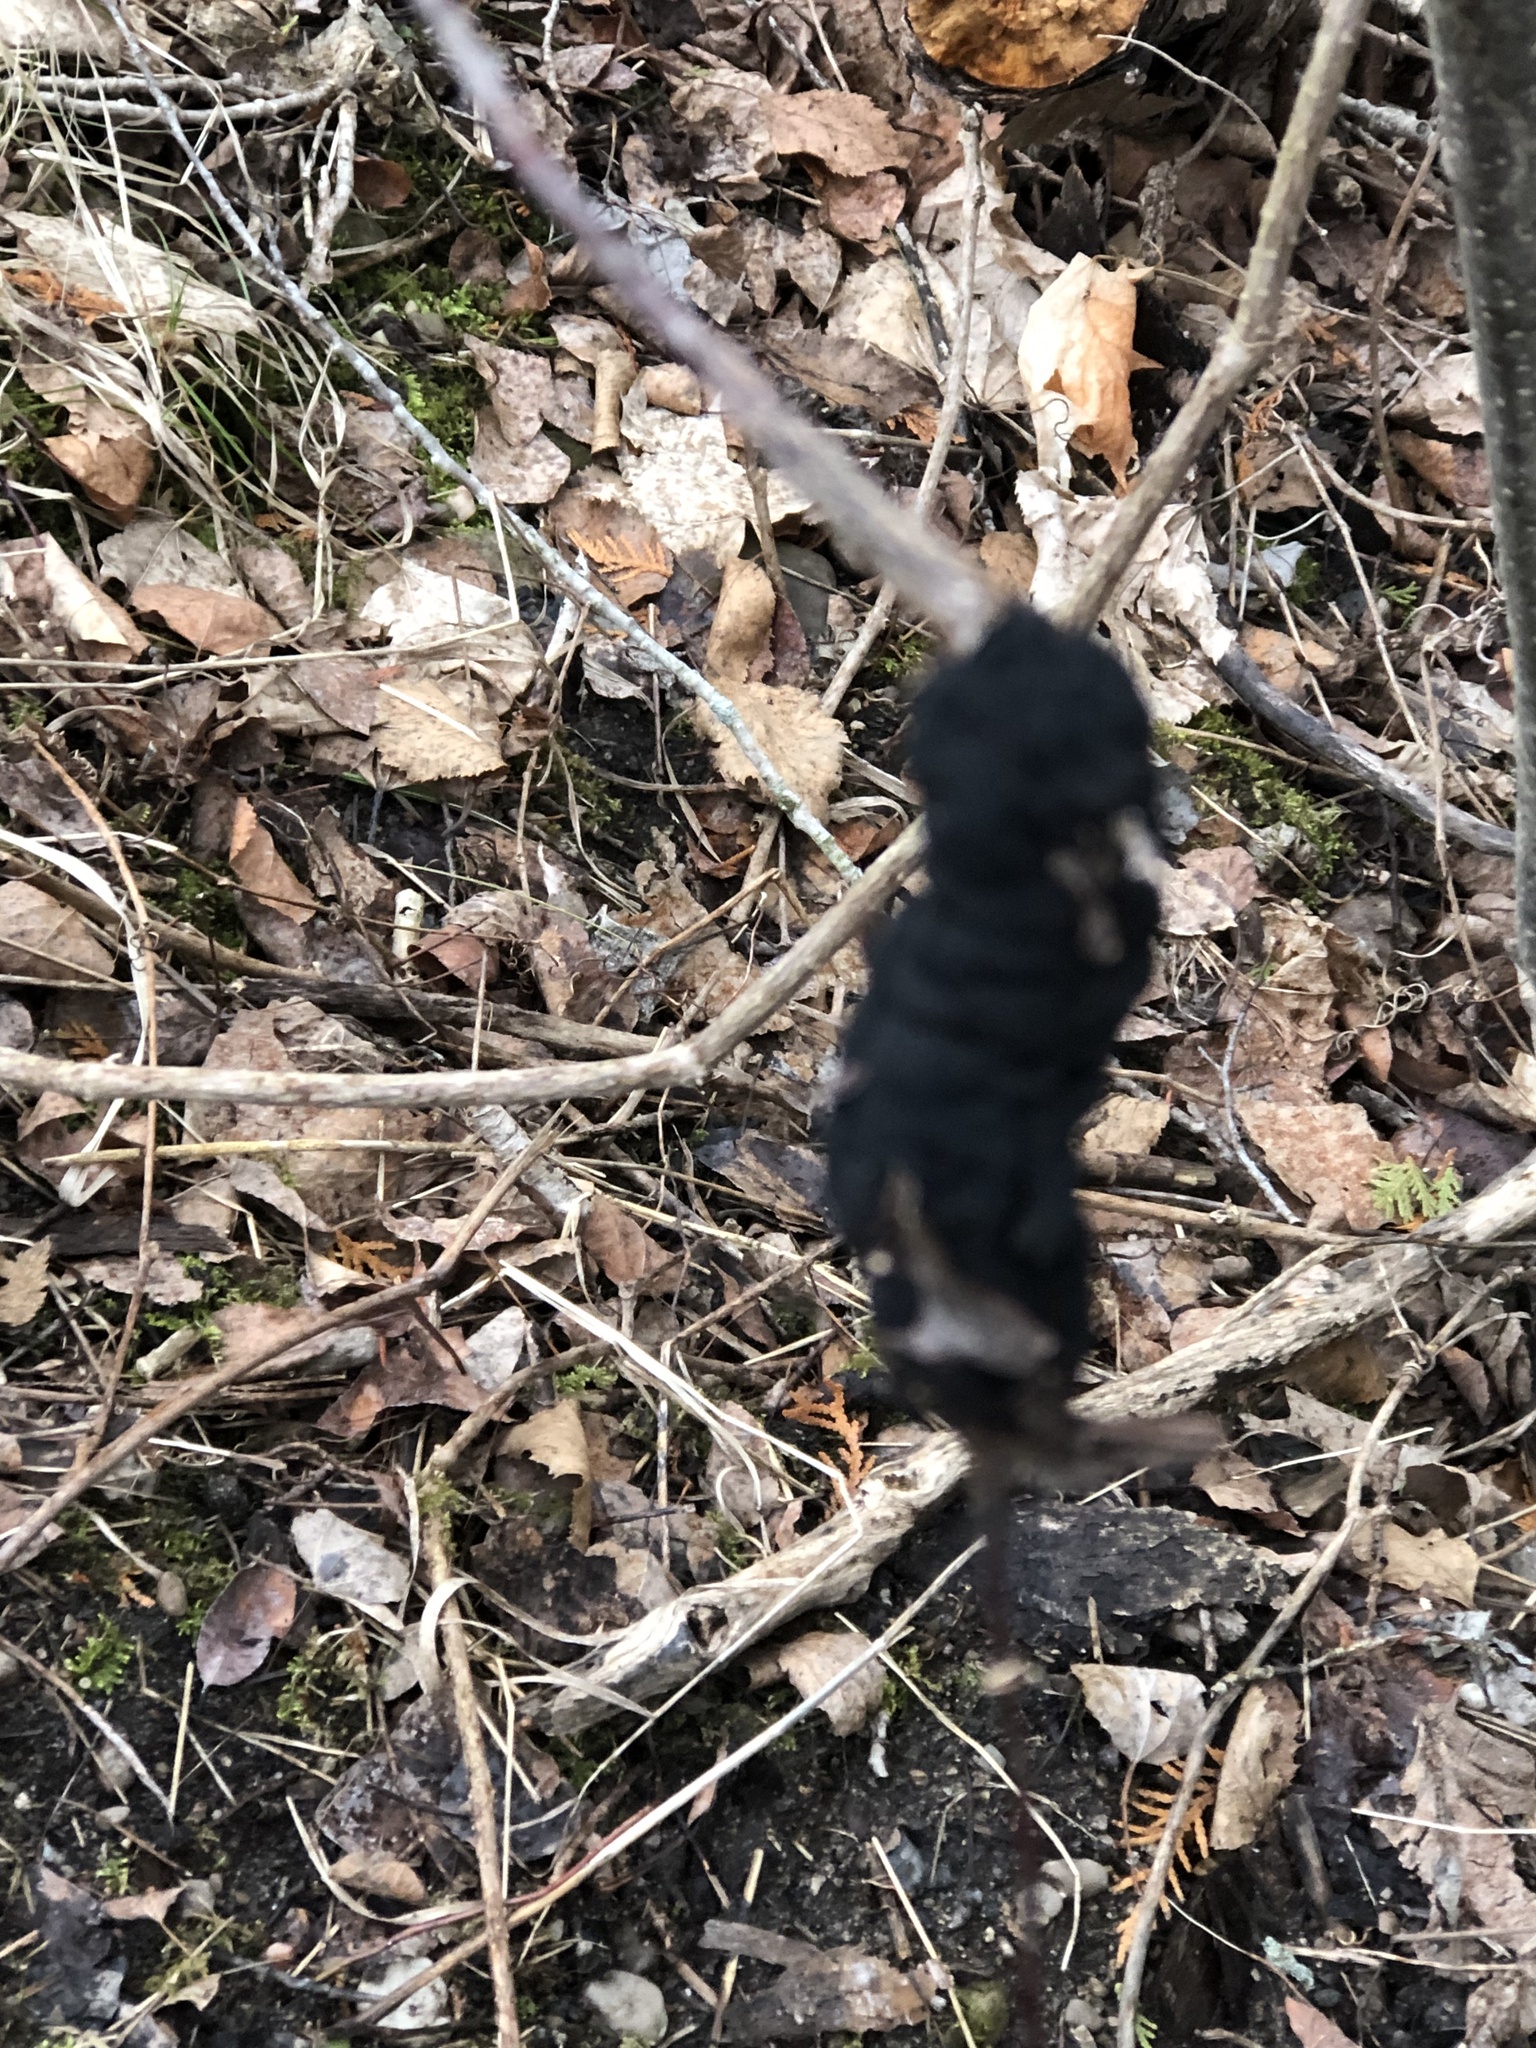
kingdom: Fungi
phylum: Ascomycota
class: Dothideomycetes
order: Venturiales
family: Venturiaceae
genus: Apiosporina
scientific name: Apiosporina morbosa
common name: Black knot
